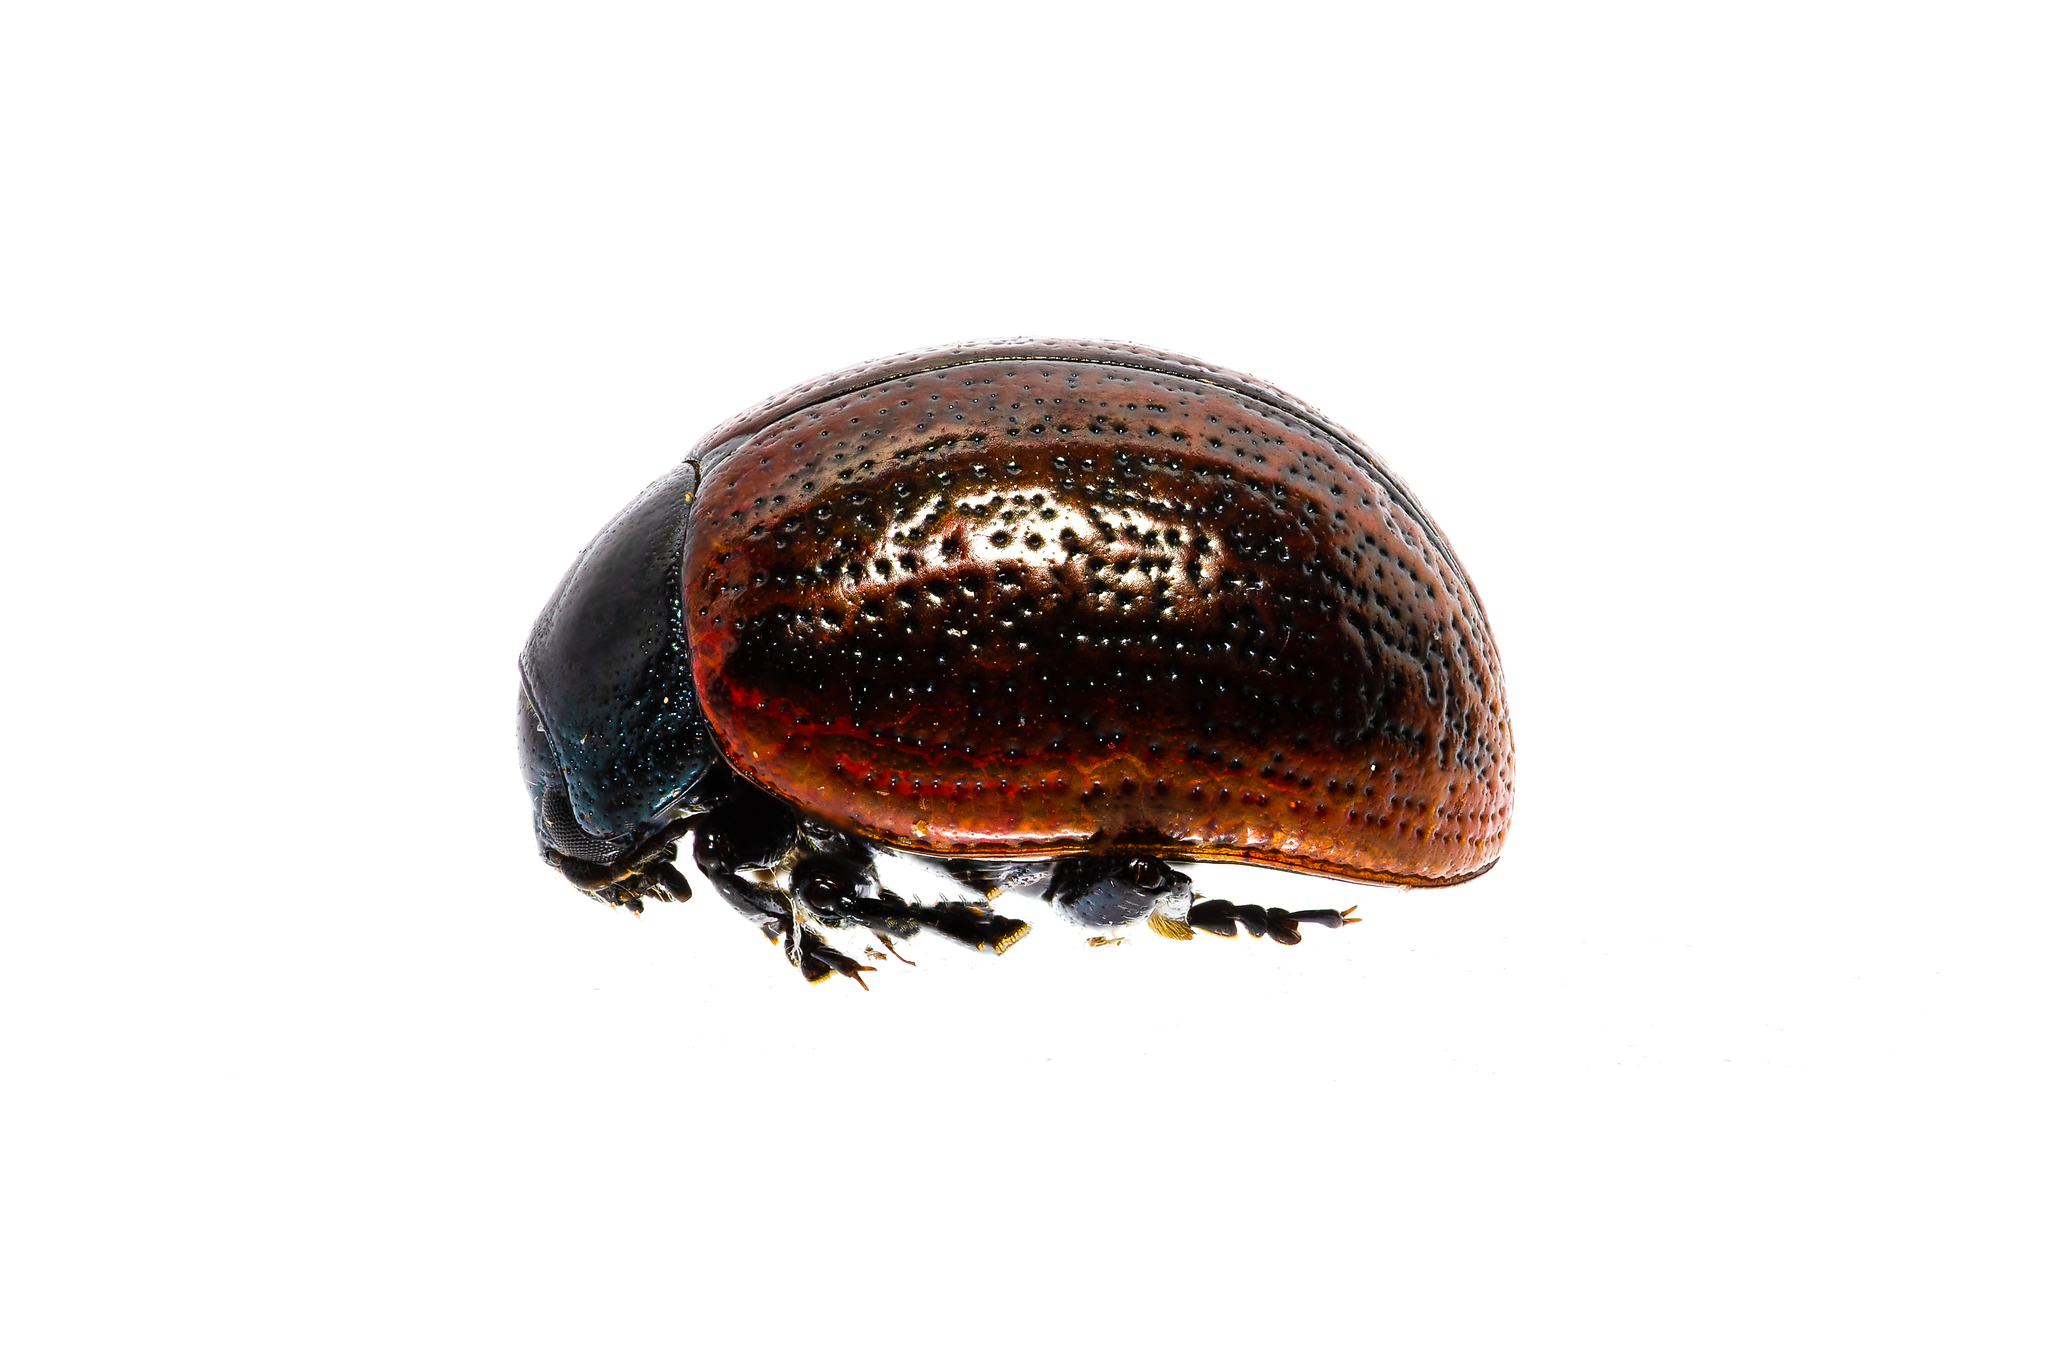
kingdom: Animalia
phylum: Arthropoda
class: Insecta
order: Coleoptera
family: Chrysomelidae
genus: Chrysolina
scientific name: Chrysolina diluta
